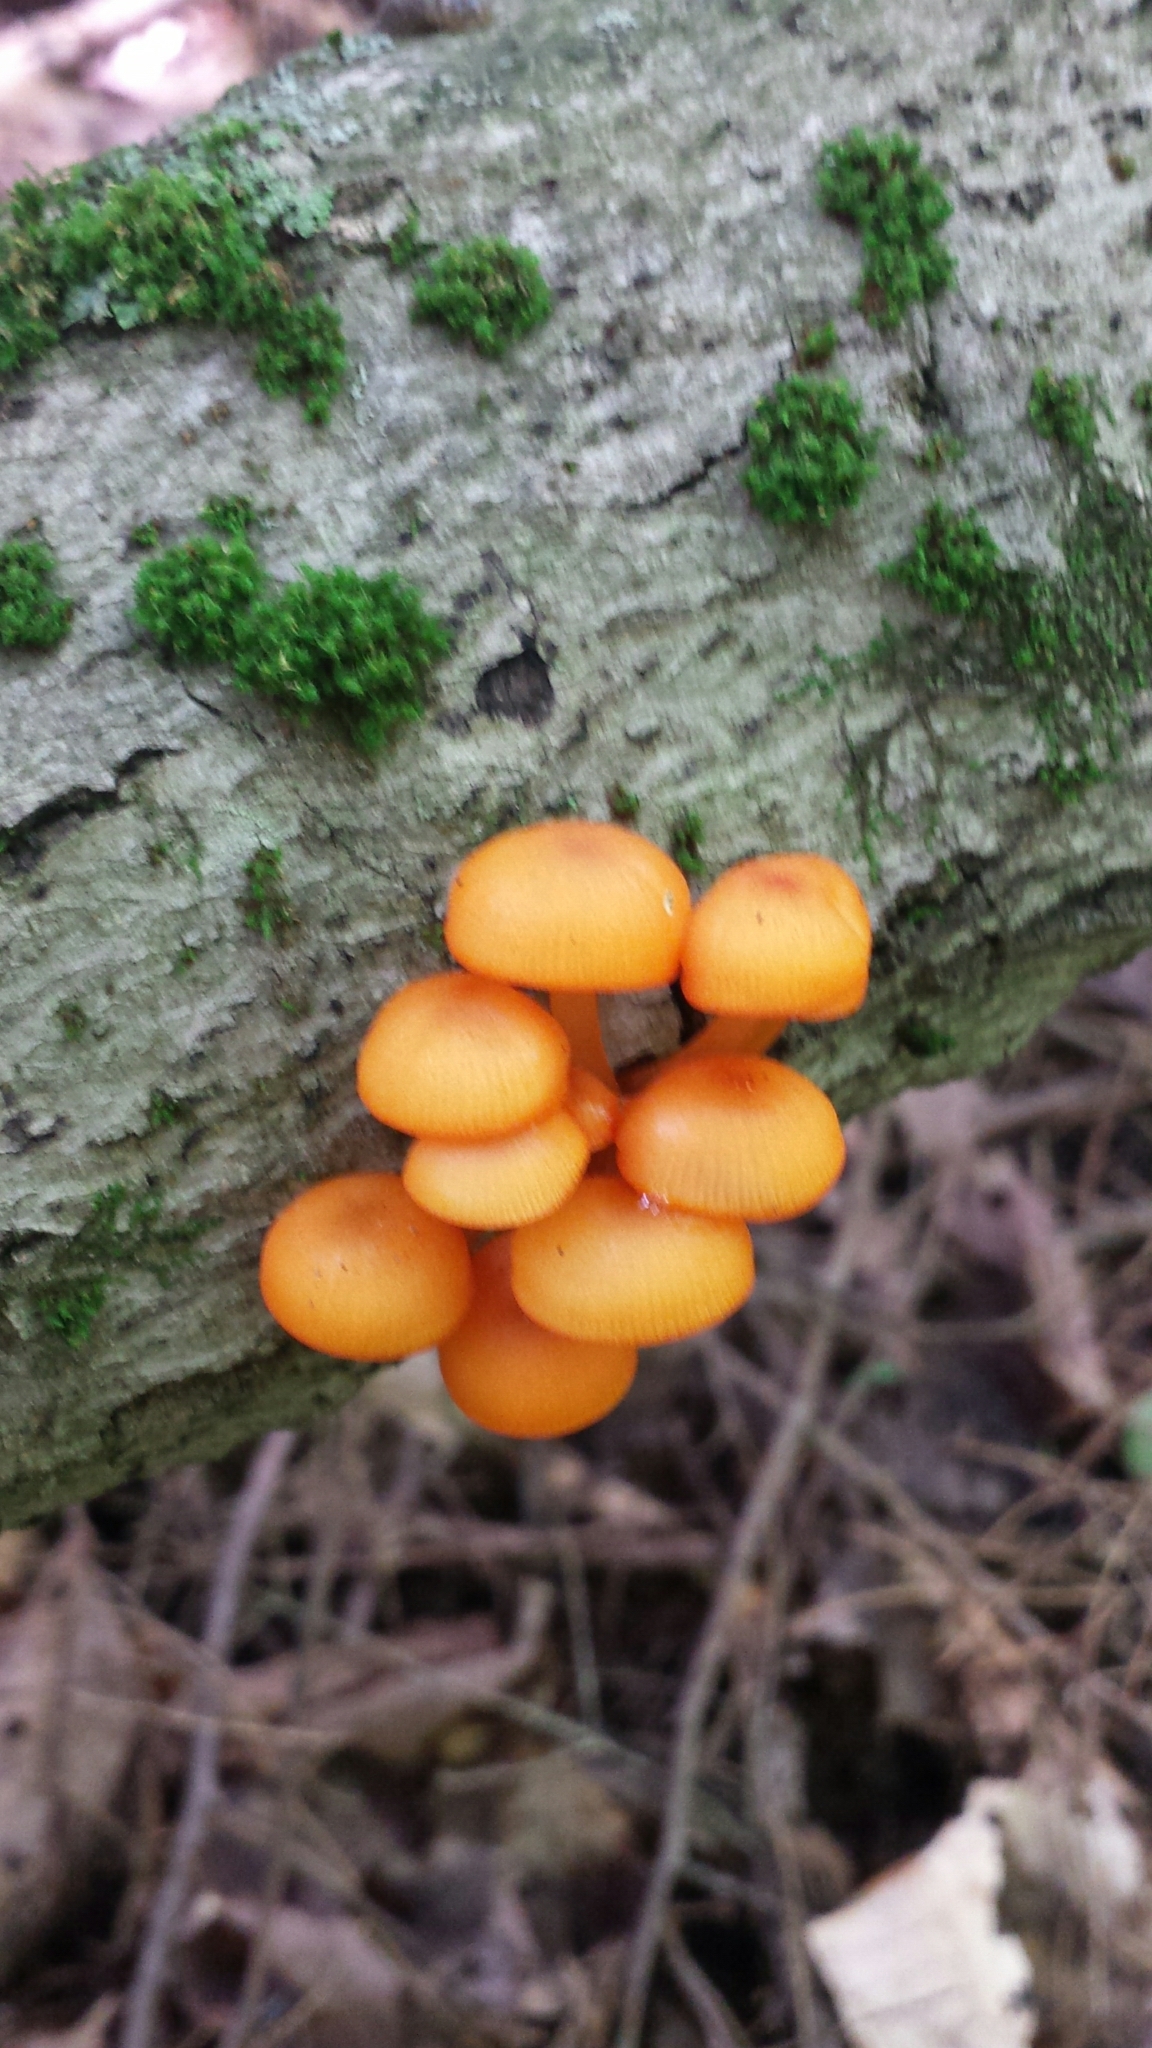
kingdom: Fungi
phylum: Basidiomycota
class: Agaricomycetes
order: Agaricales
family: Mycenaceae
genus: Mycena
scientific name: Mycena leaiana
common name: Orange mycena
